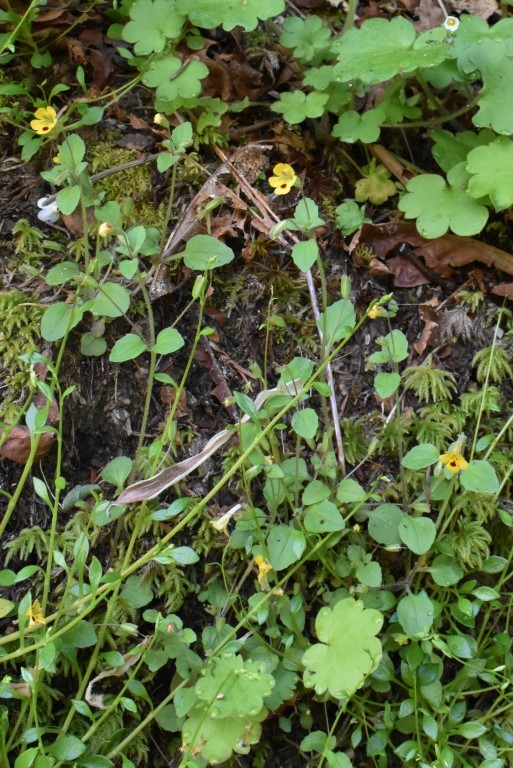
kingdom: Plantae
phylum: Tracheophyta
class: Magnoliopsida
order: Lamiales
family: Phrymaceae
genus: Erythranthe
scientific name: Erythranthe alsinoides
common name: Chickweed monkeyflower
